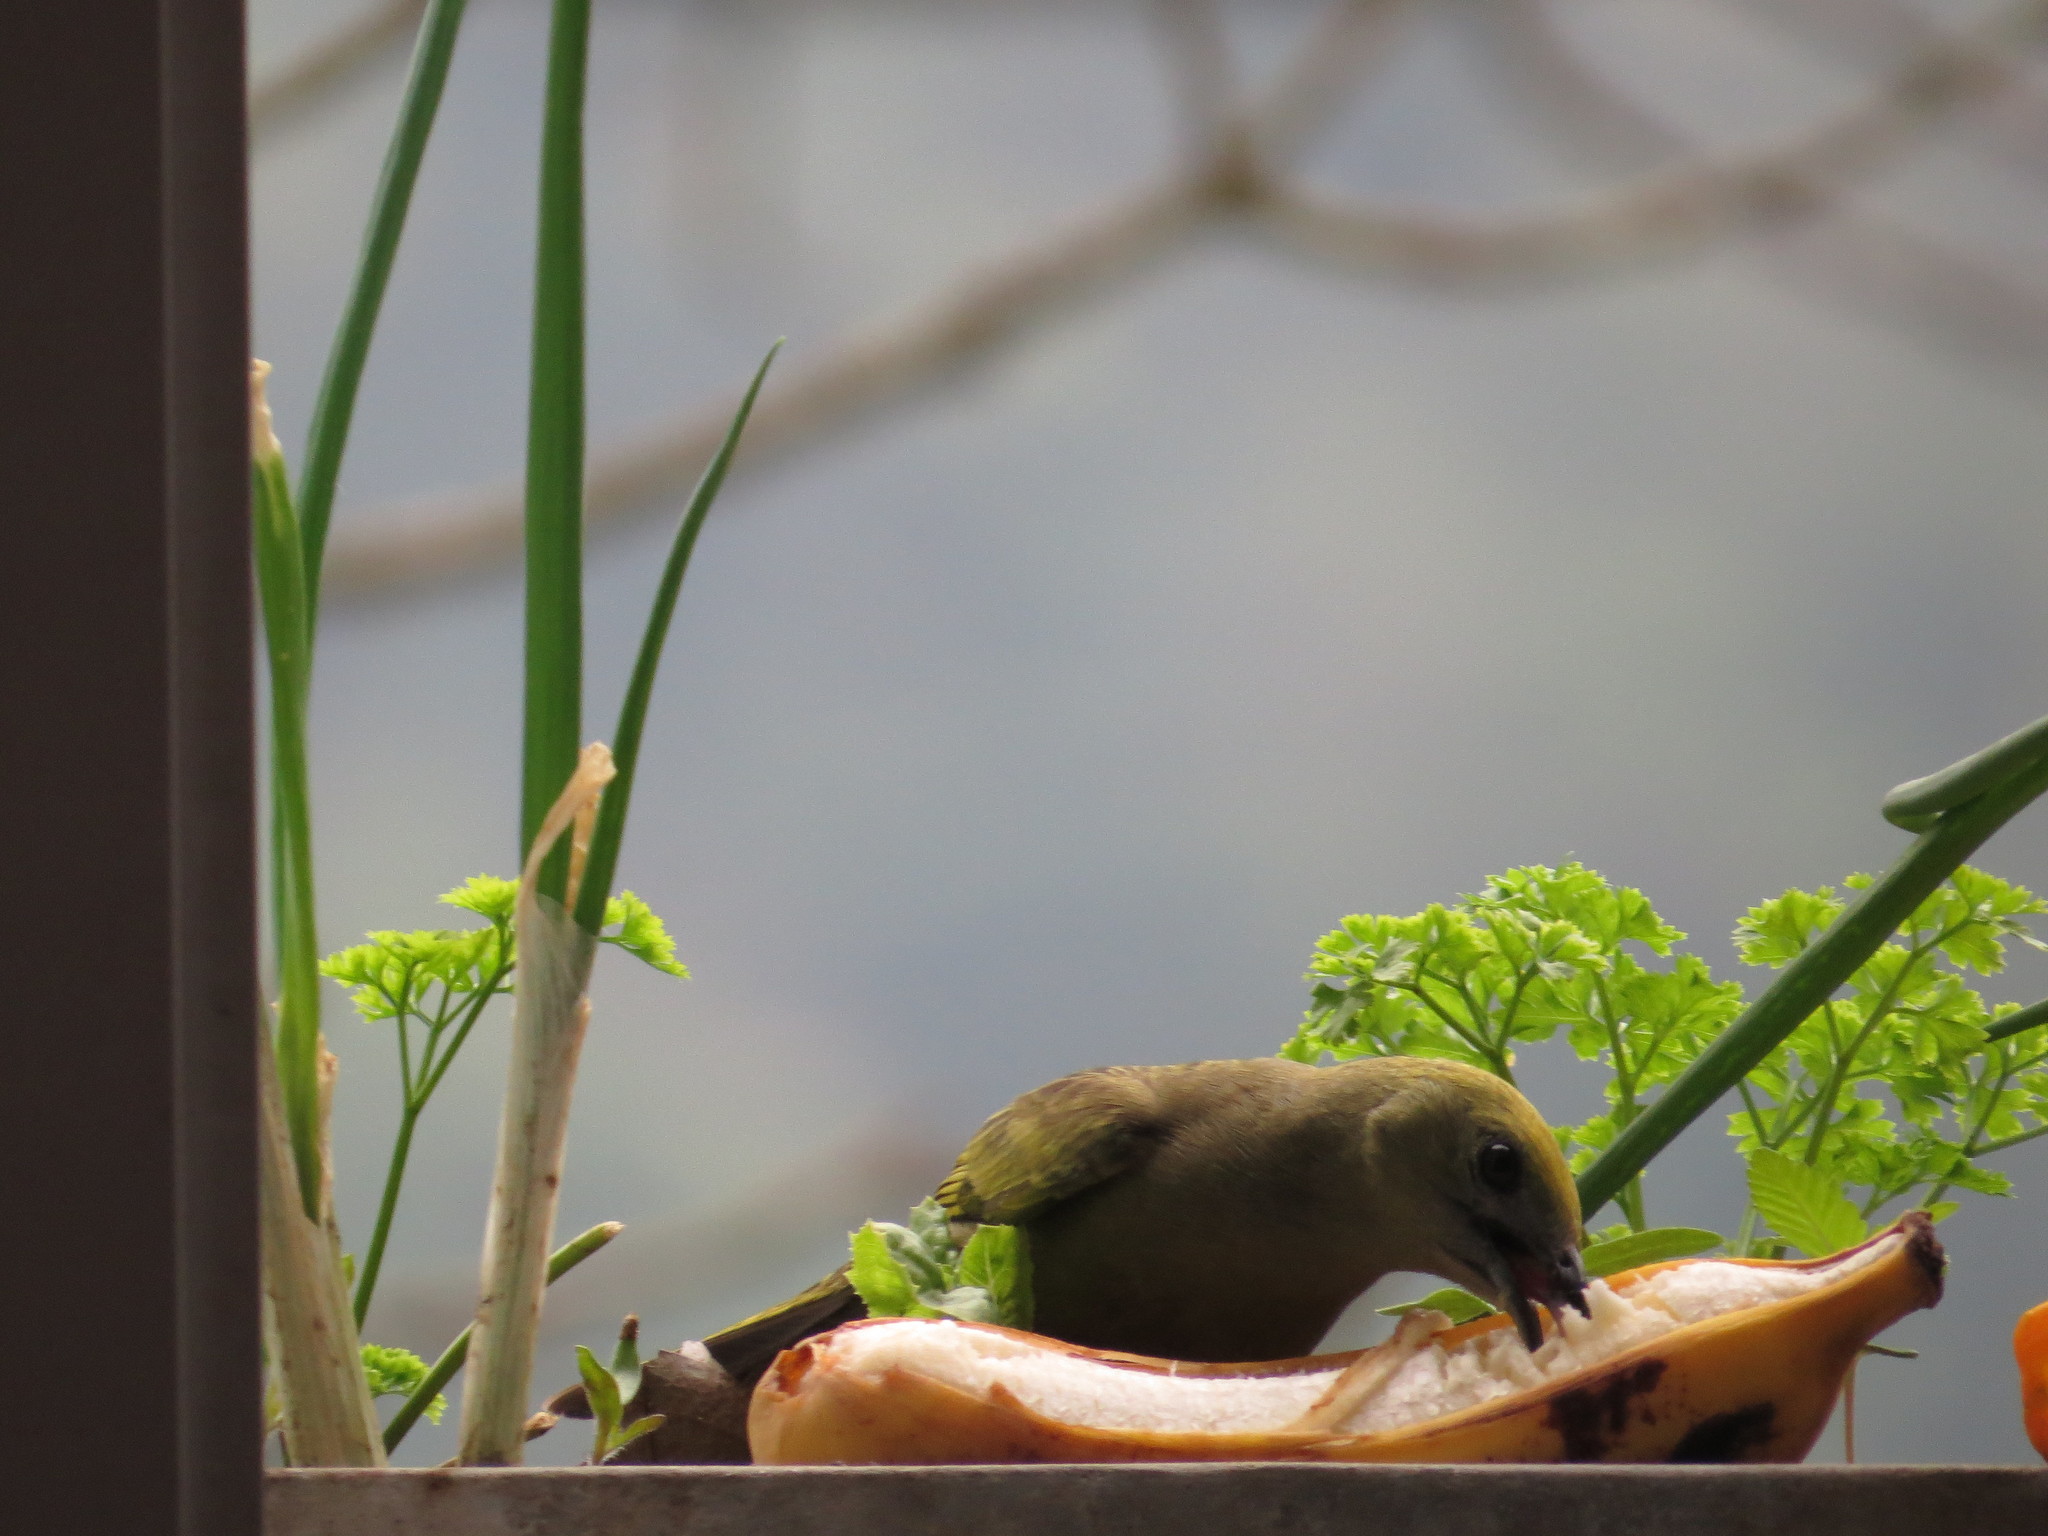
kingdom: Animalia
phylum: Chordata
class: Aves
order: Passeriformes
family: Thraupidae
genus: Thraupis
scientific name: Thraupis palmarum
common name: Palm tanager
